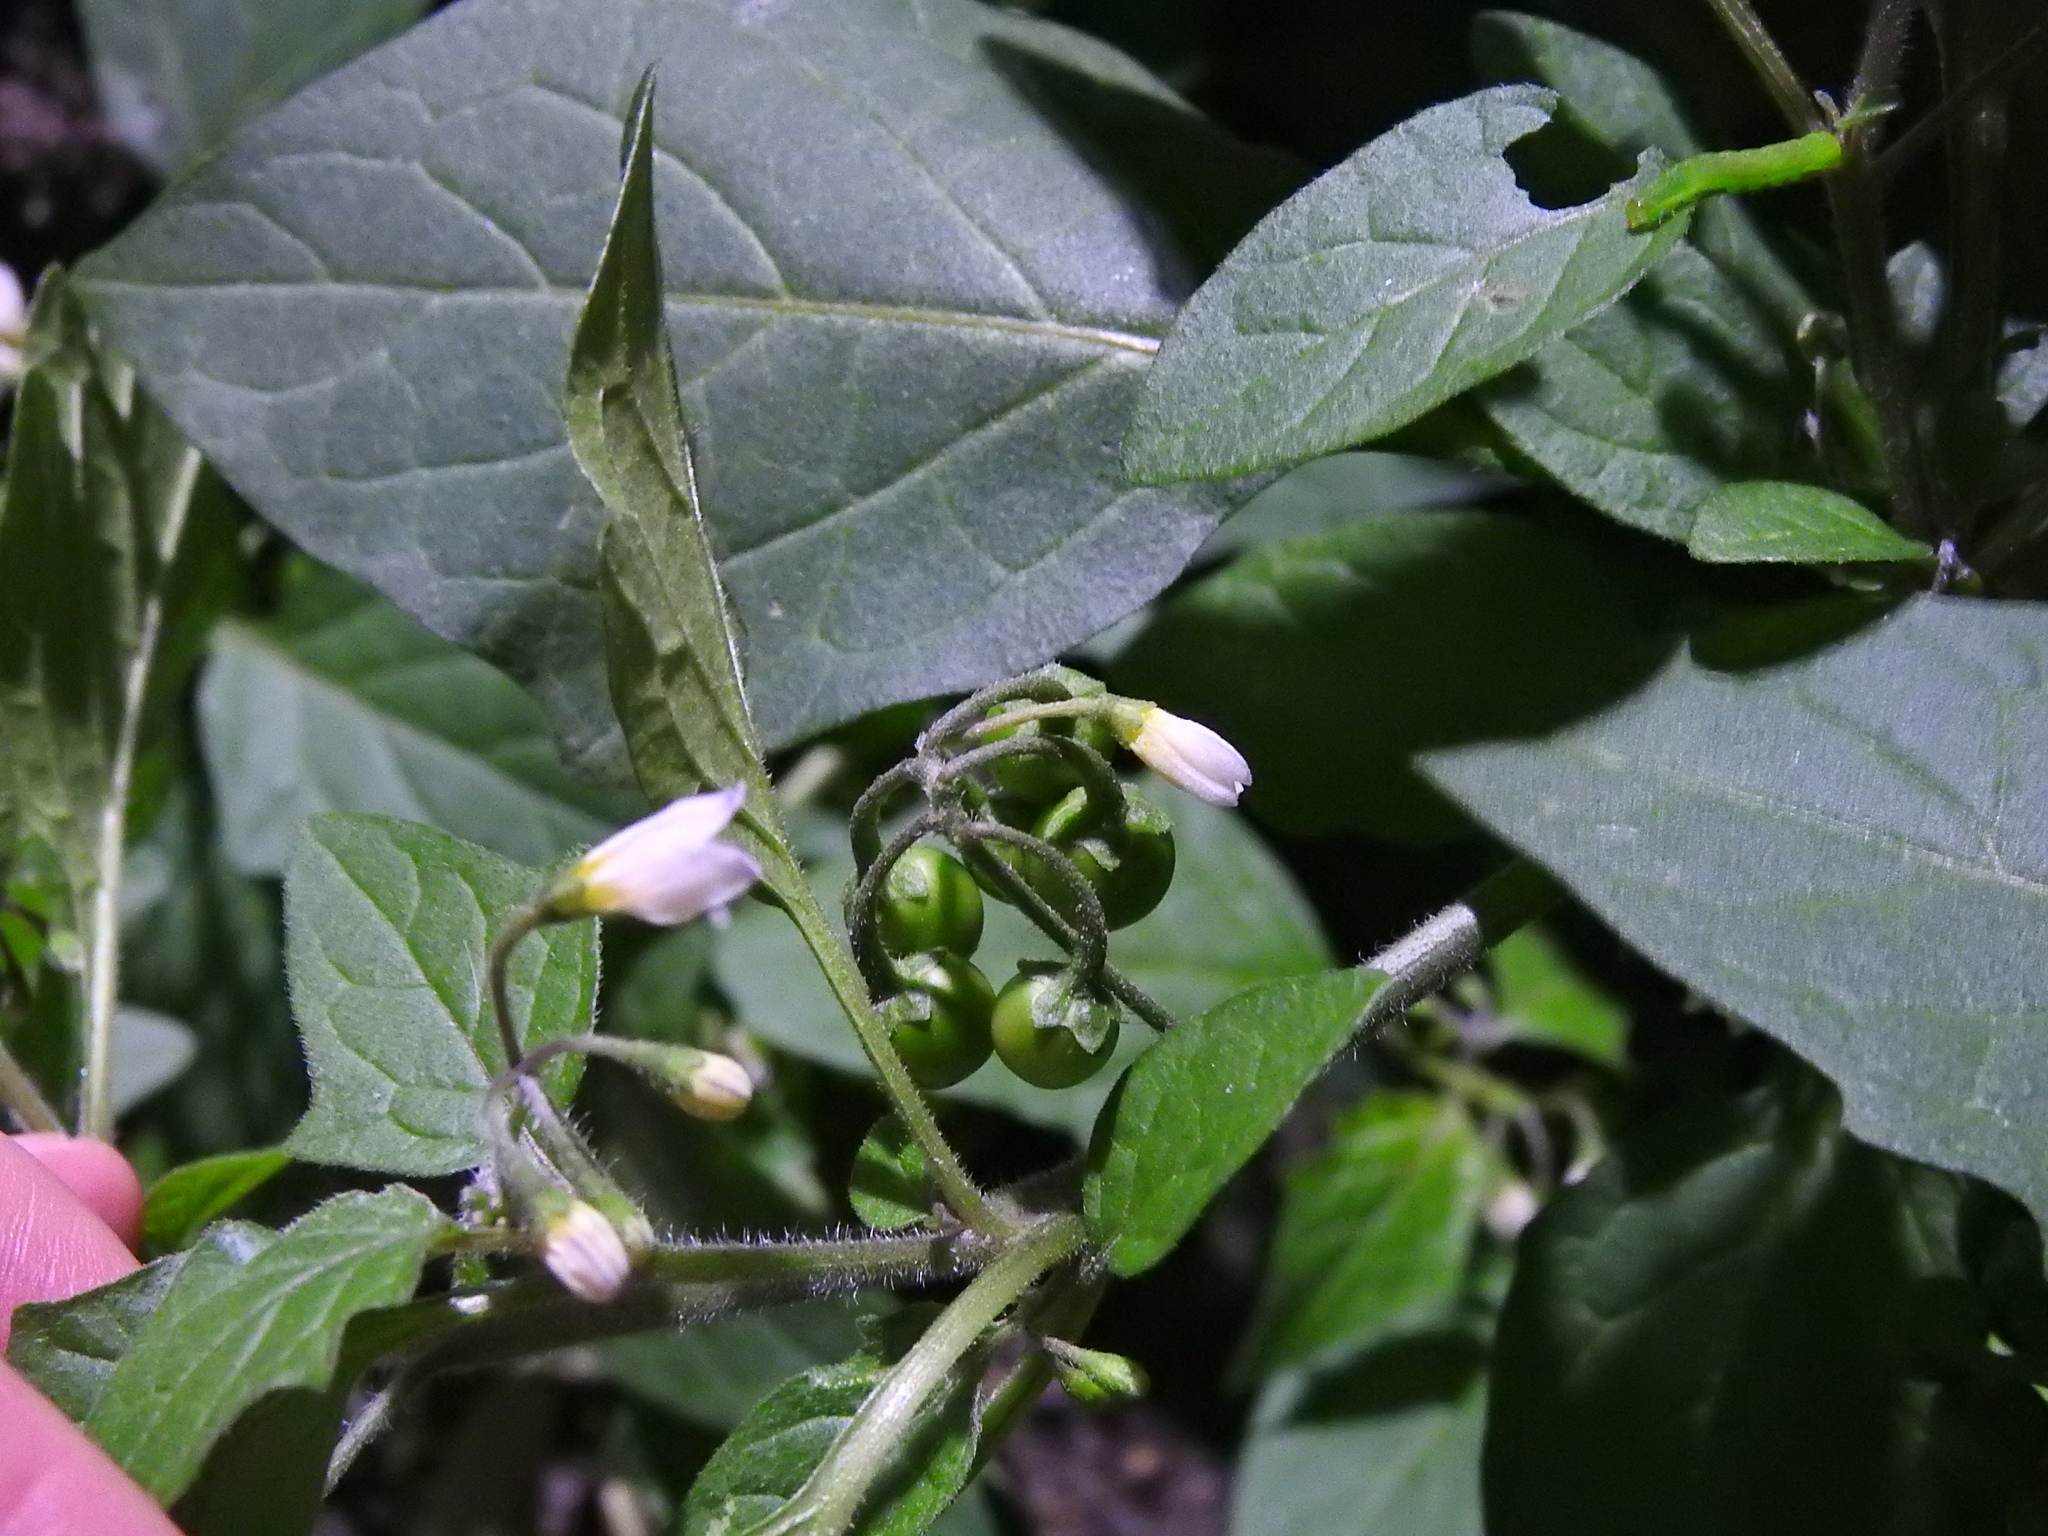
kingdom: Plantae
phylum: Tracheophyta
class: Magnoliopsida
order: Solanales
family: Solanaceae
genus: Solanum
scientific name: Solanum nigrum
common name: Black nightshade
